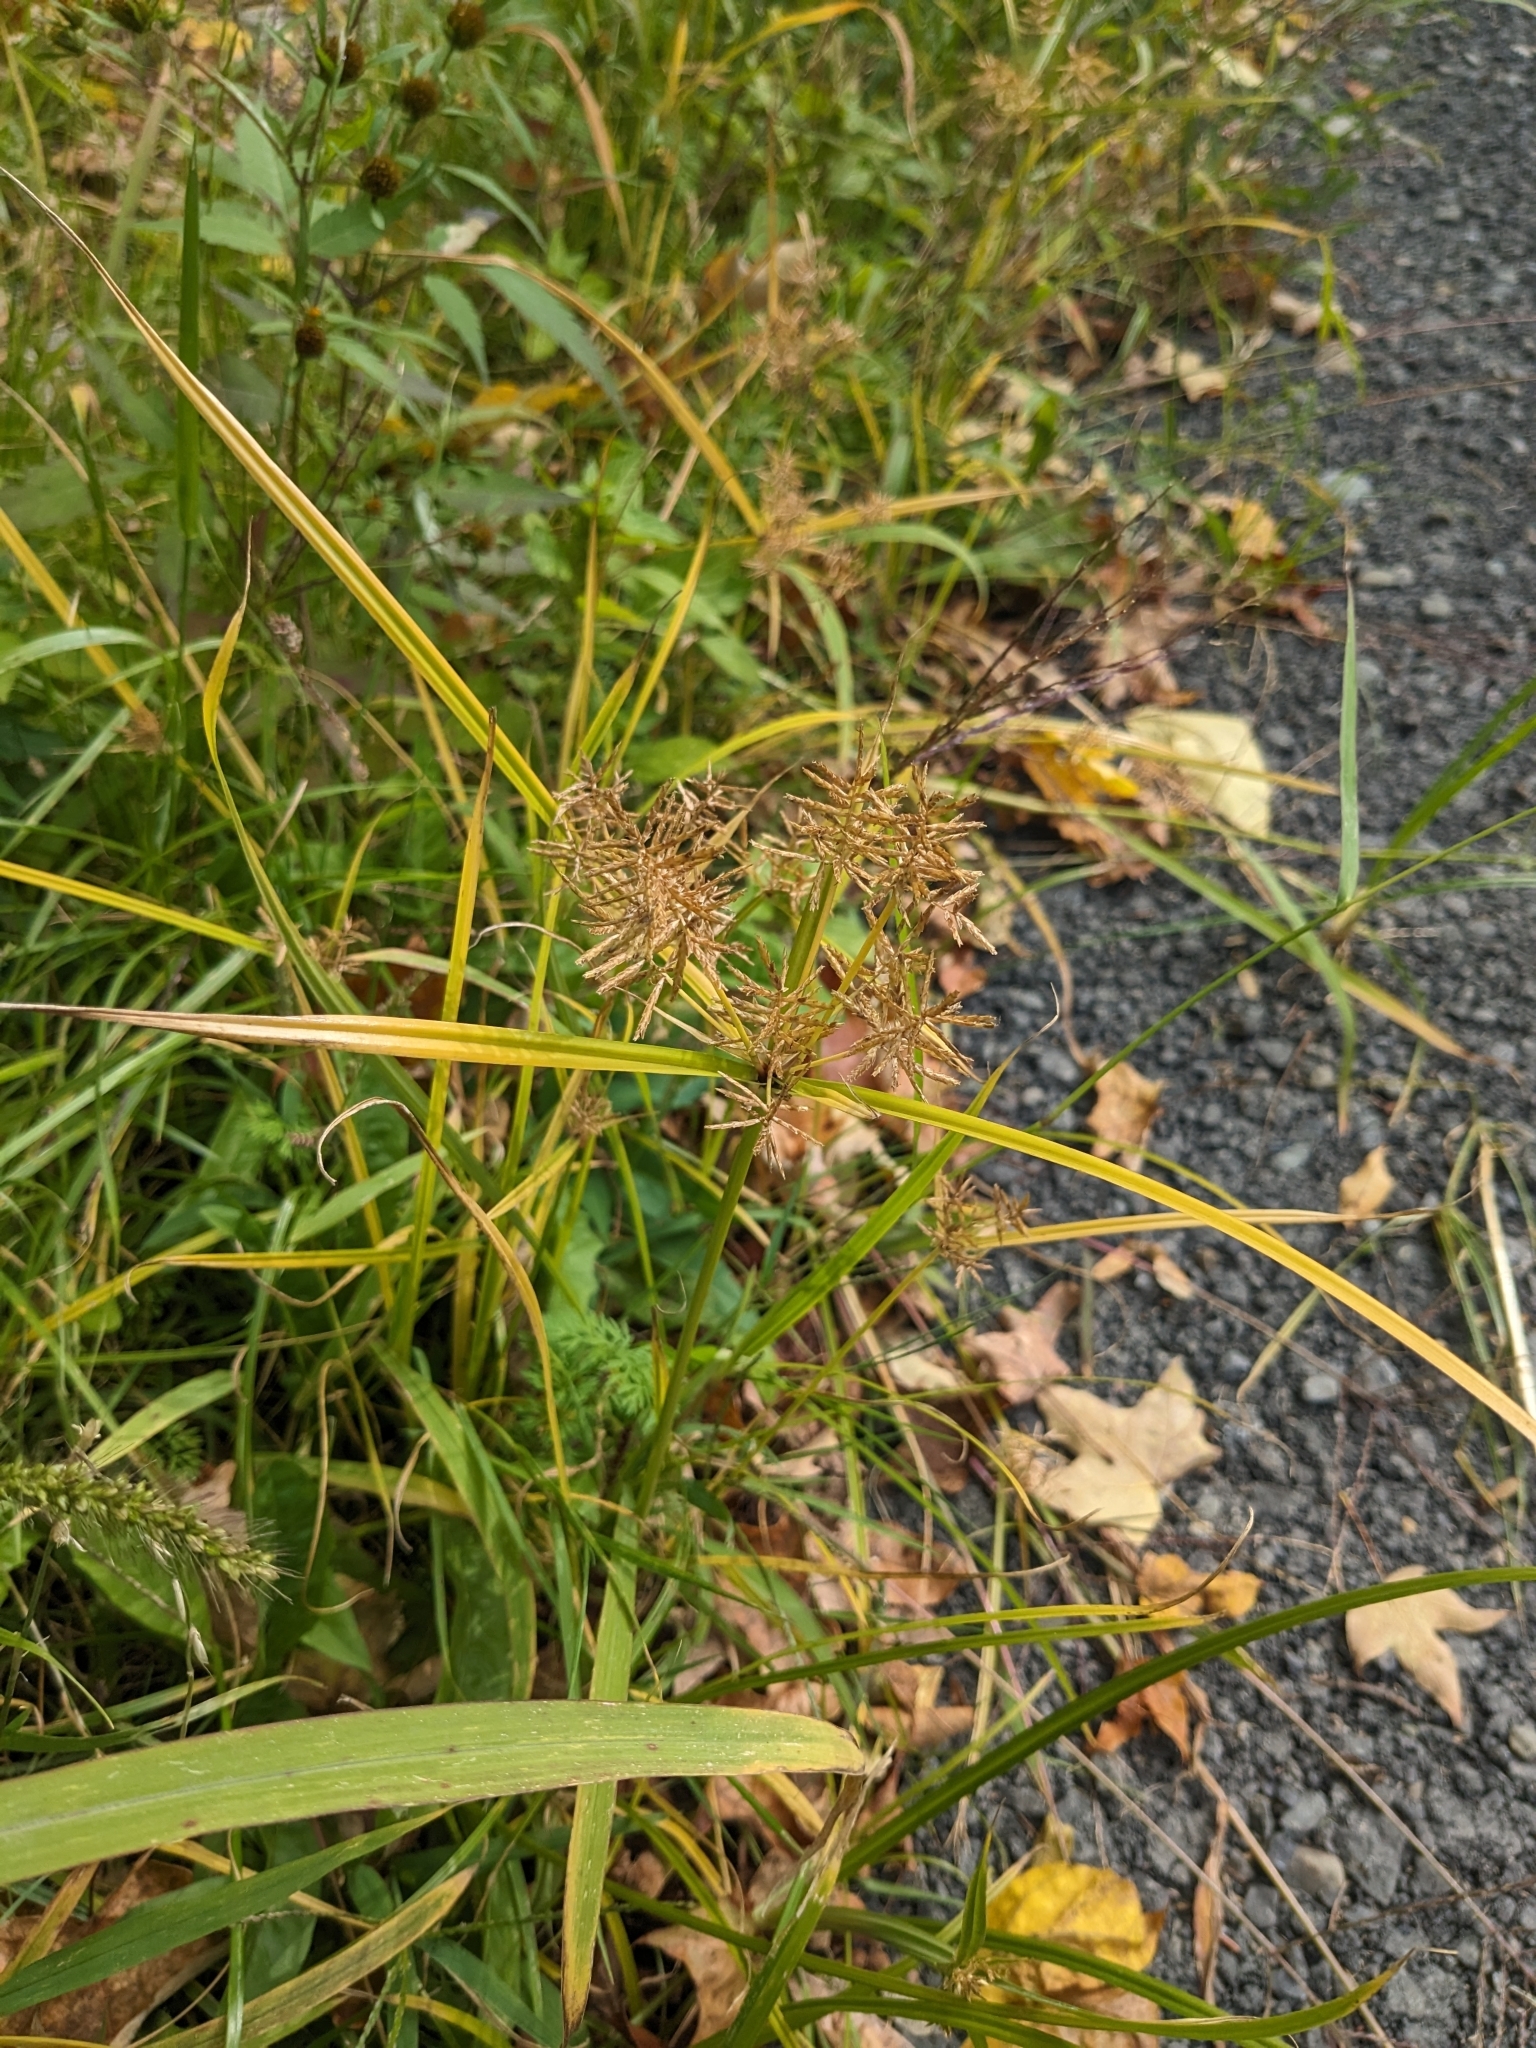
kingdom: Plantae
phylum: Tracheophyta
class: Liliopsida
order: Poales
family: Cyperaceae
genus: Cyperus
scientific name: Cyperus esculentus
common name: Yellow nutsedge
